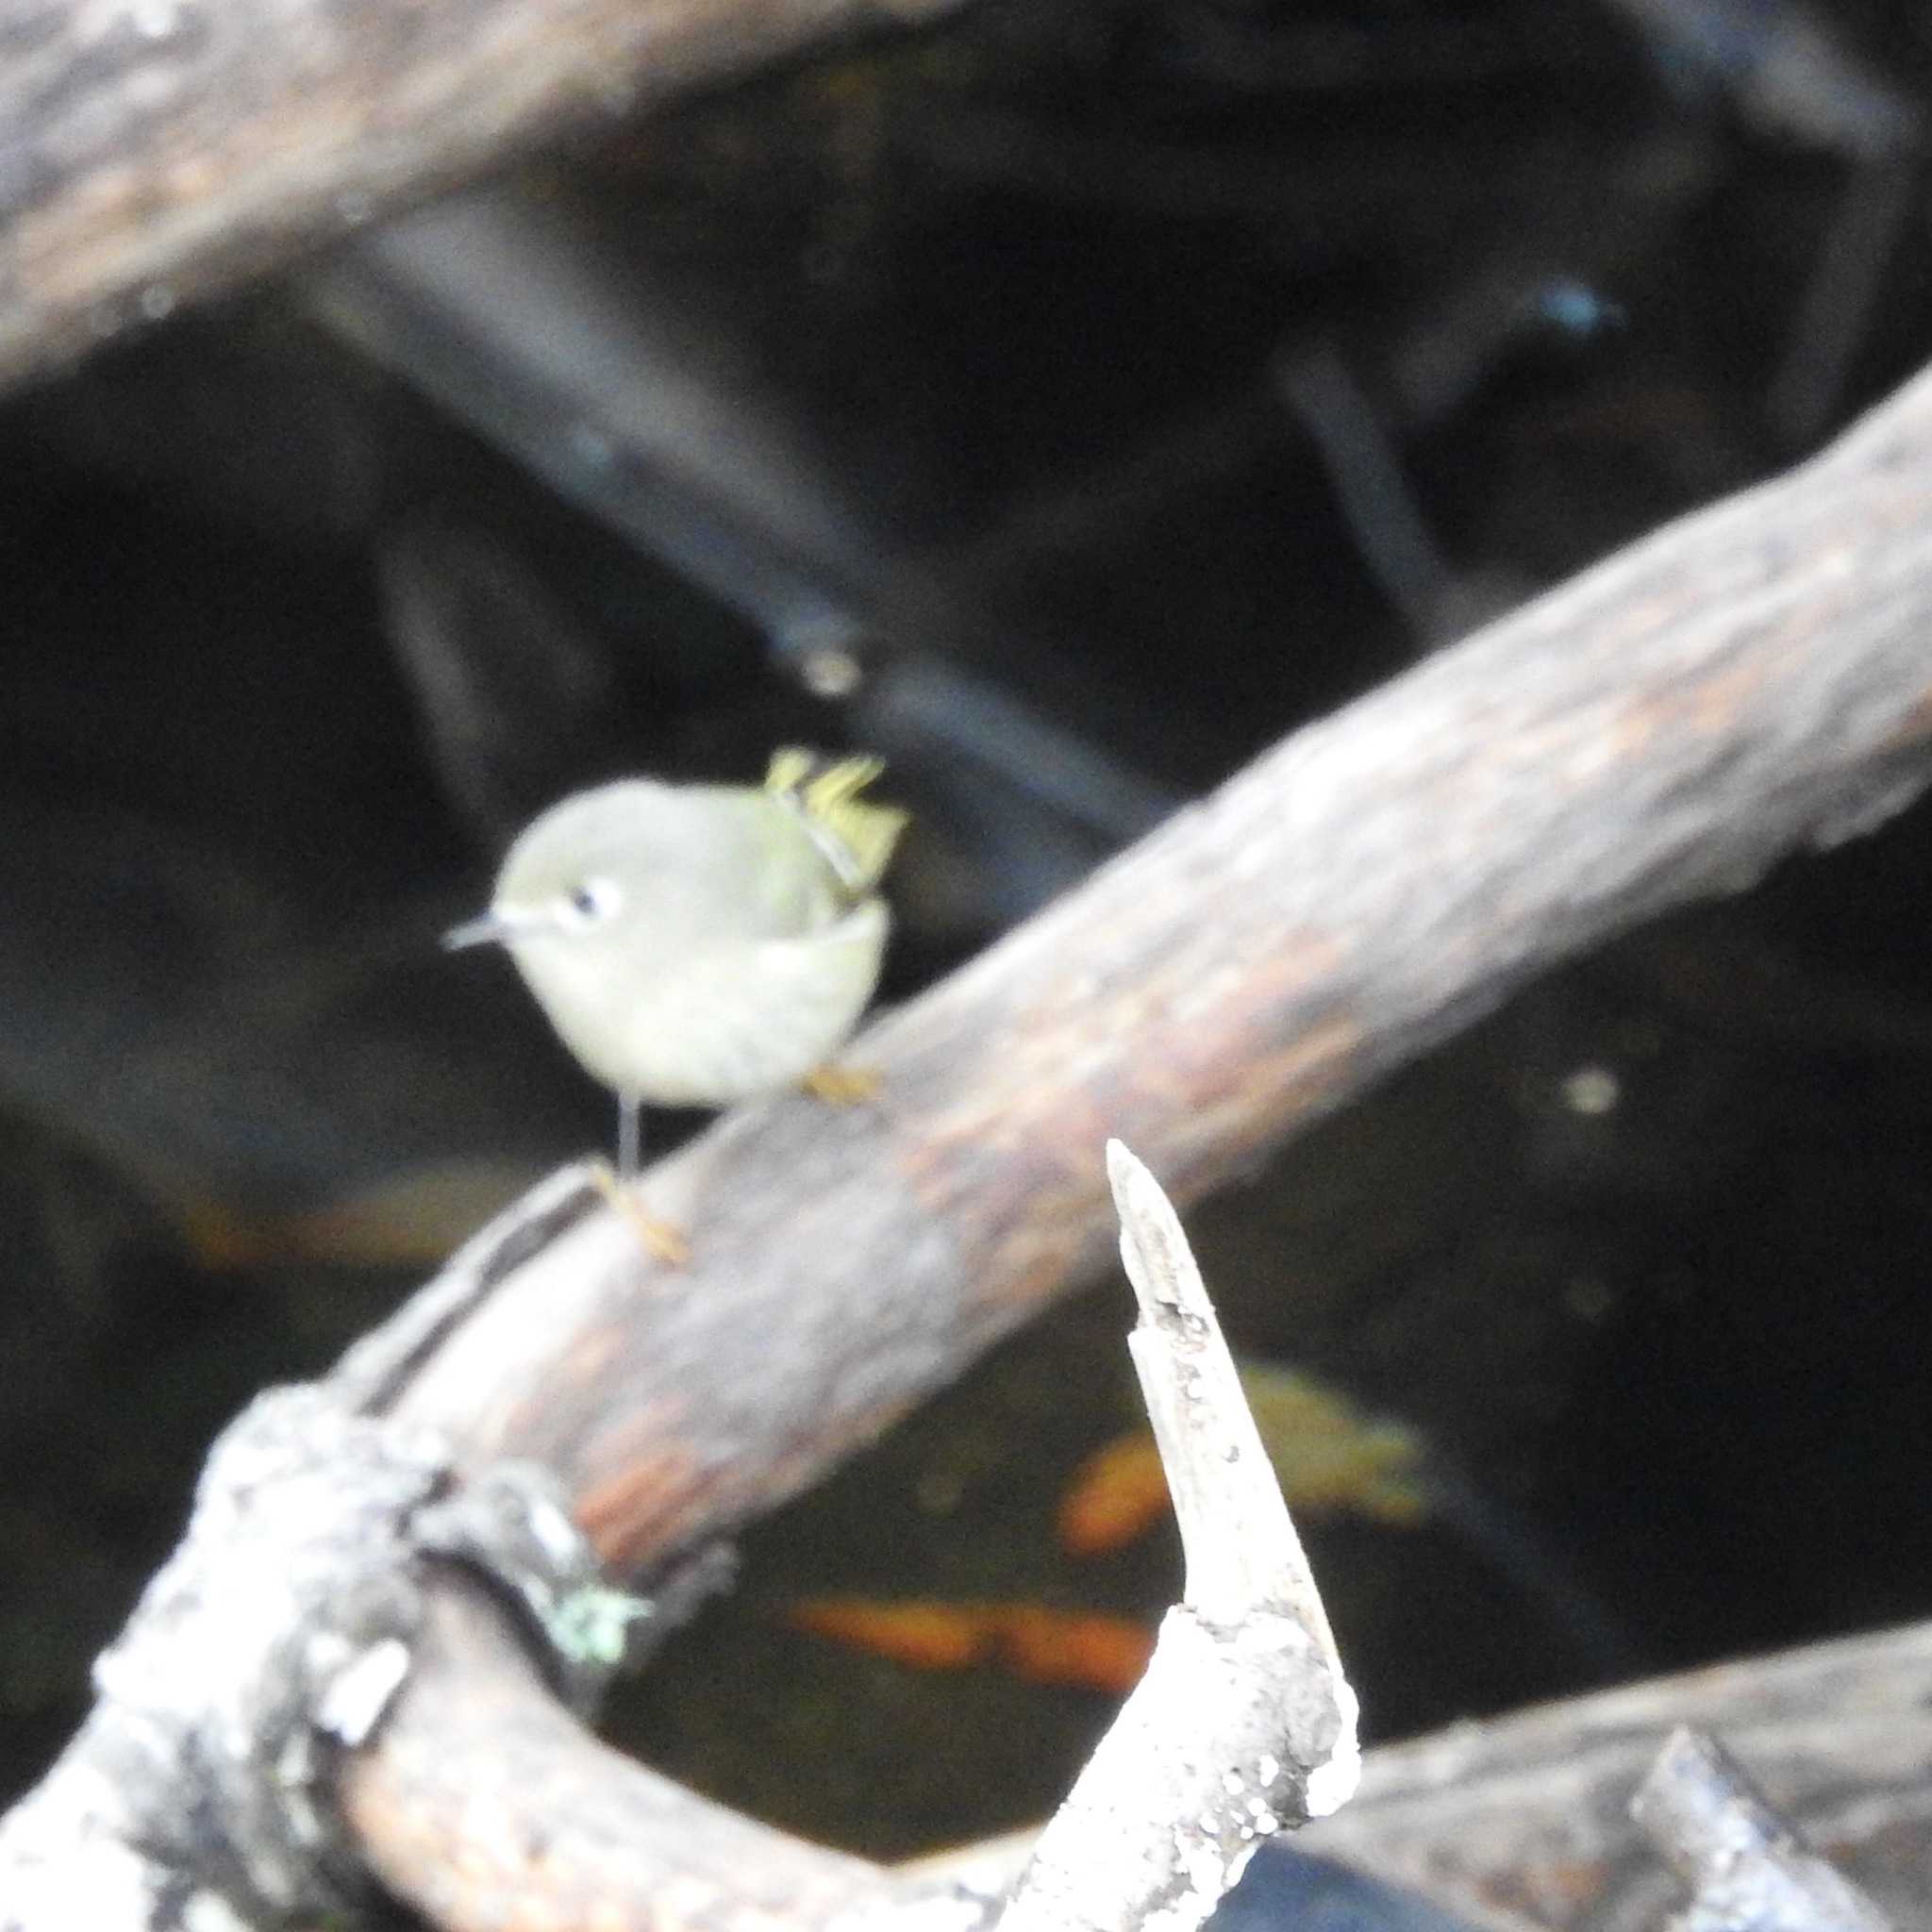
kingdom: Animalia
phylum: Chordata
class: Aves
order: Passeriformes
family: Regulidae
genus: Regulus
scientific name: Regulus calendula
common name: Ruby-crowned kinglet
